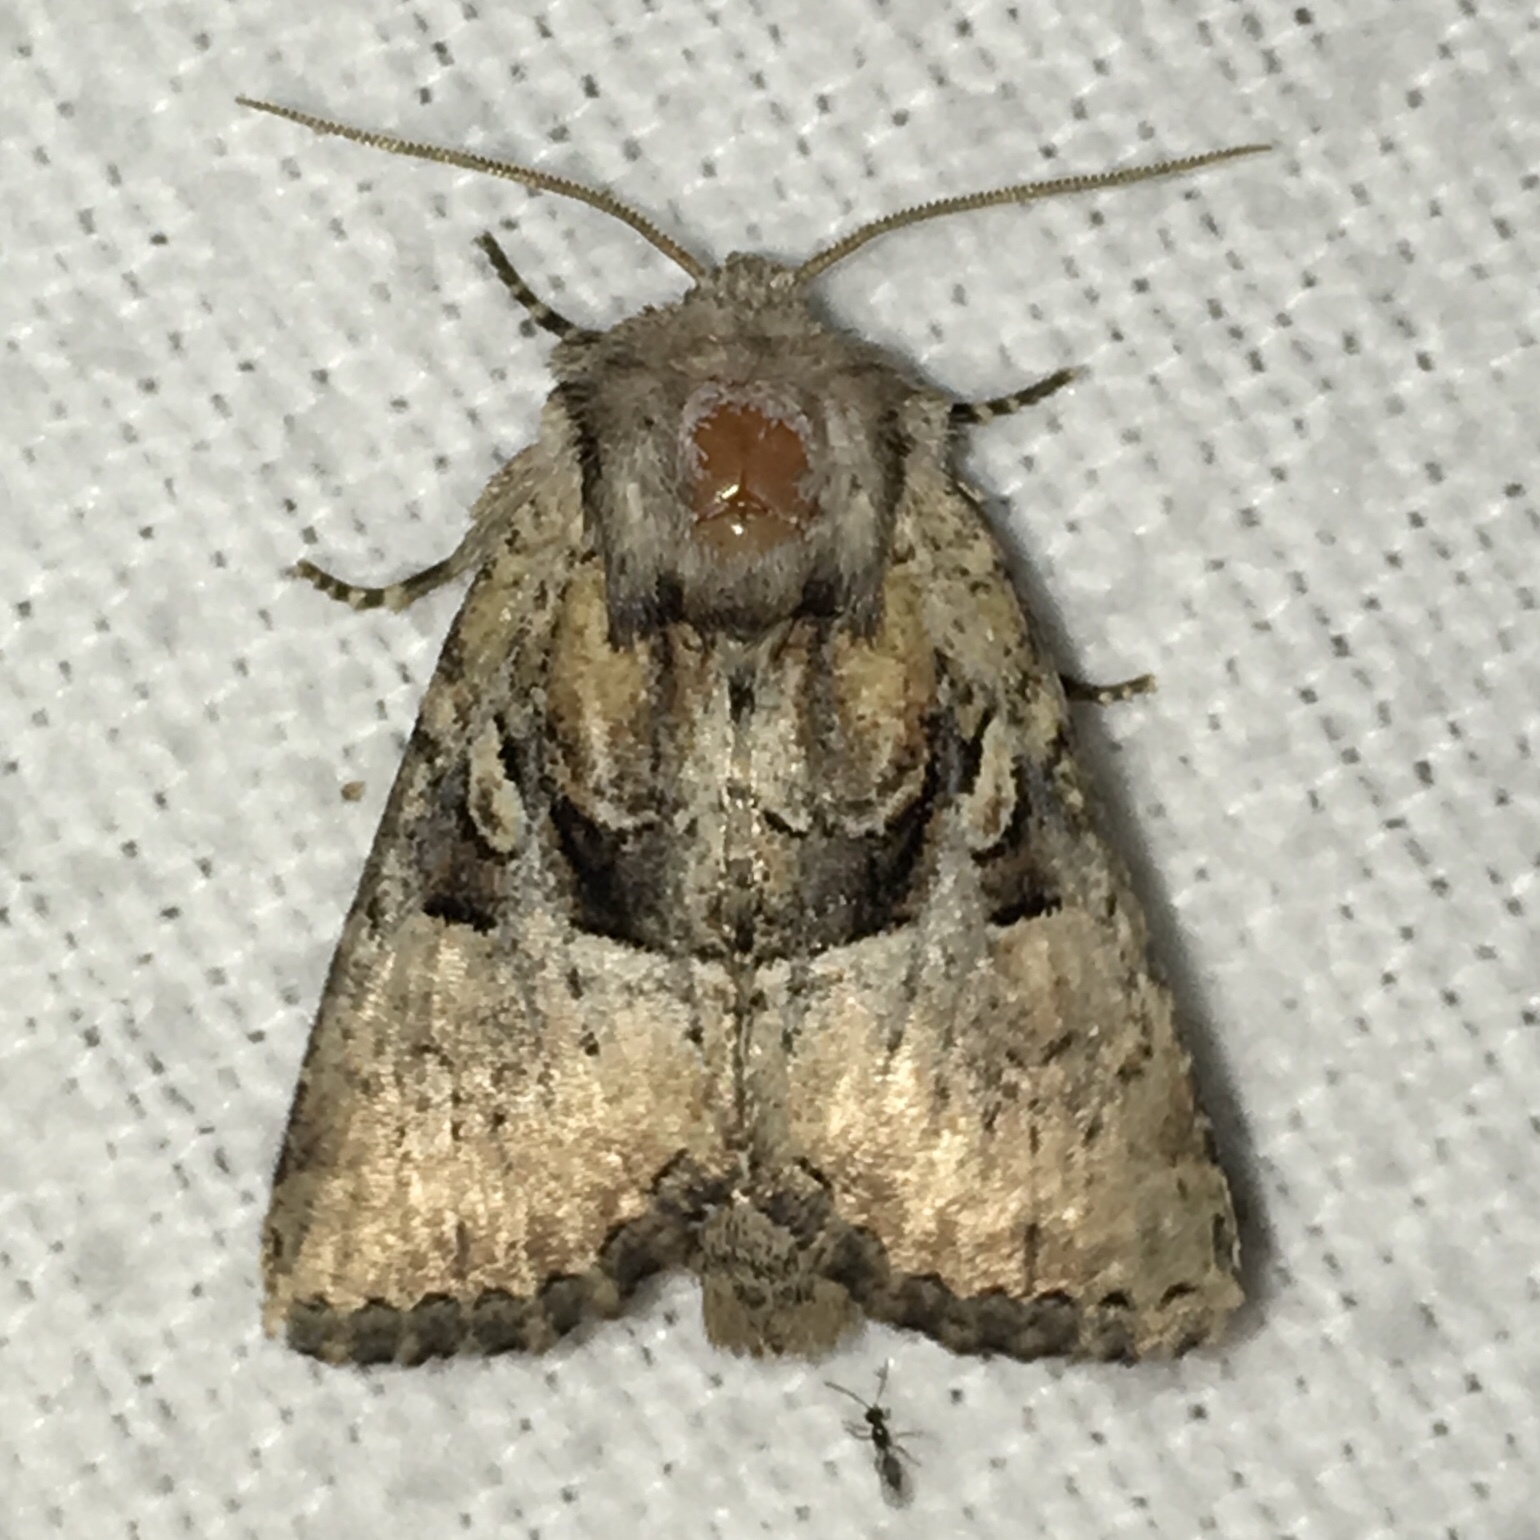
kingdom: Animalia
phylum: Arthropoda
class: Insecta
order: Lepidoptera
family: Noctuidae
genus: Meropleon
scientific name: Meropleon diversicolor
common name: Multicolored sedgeminer moth
